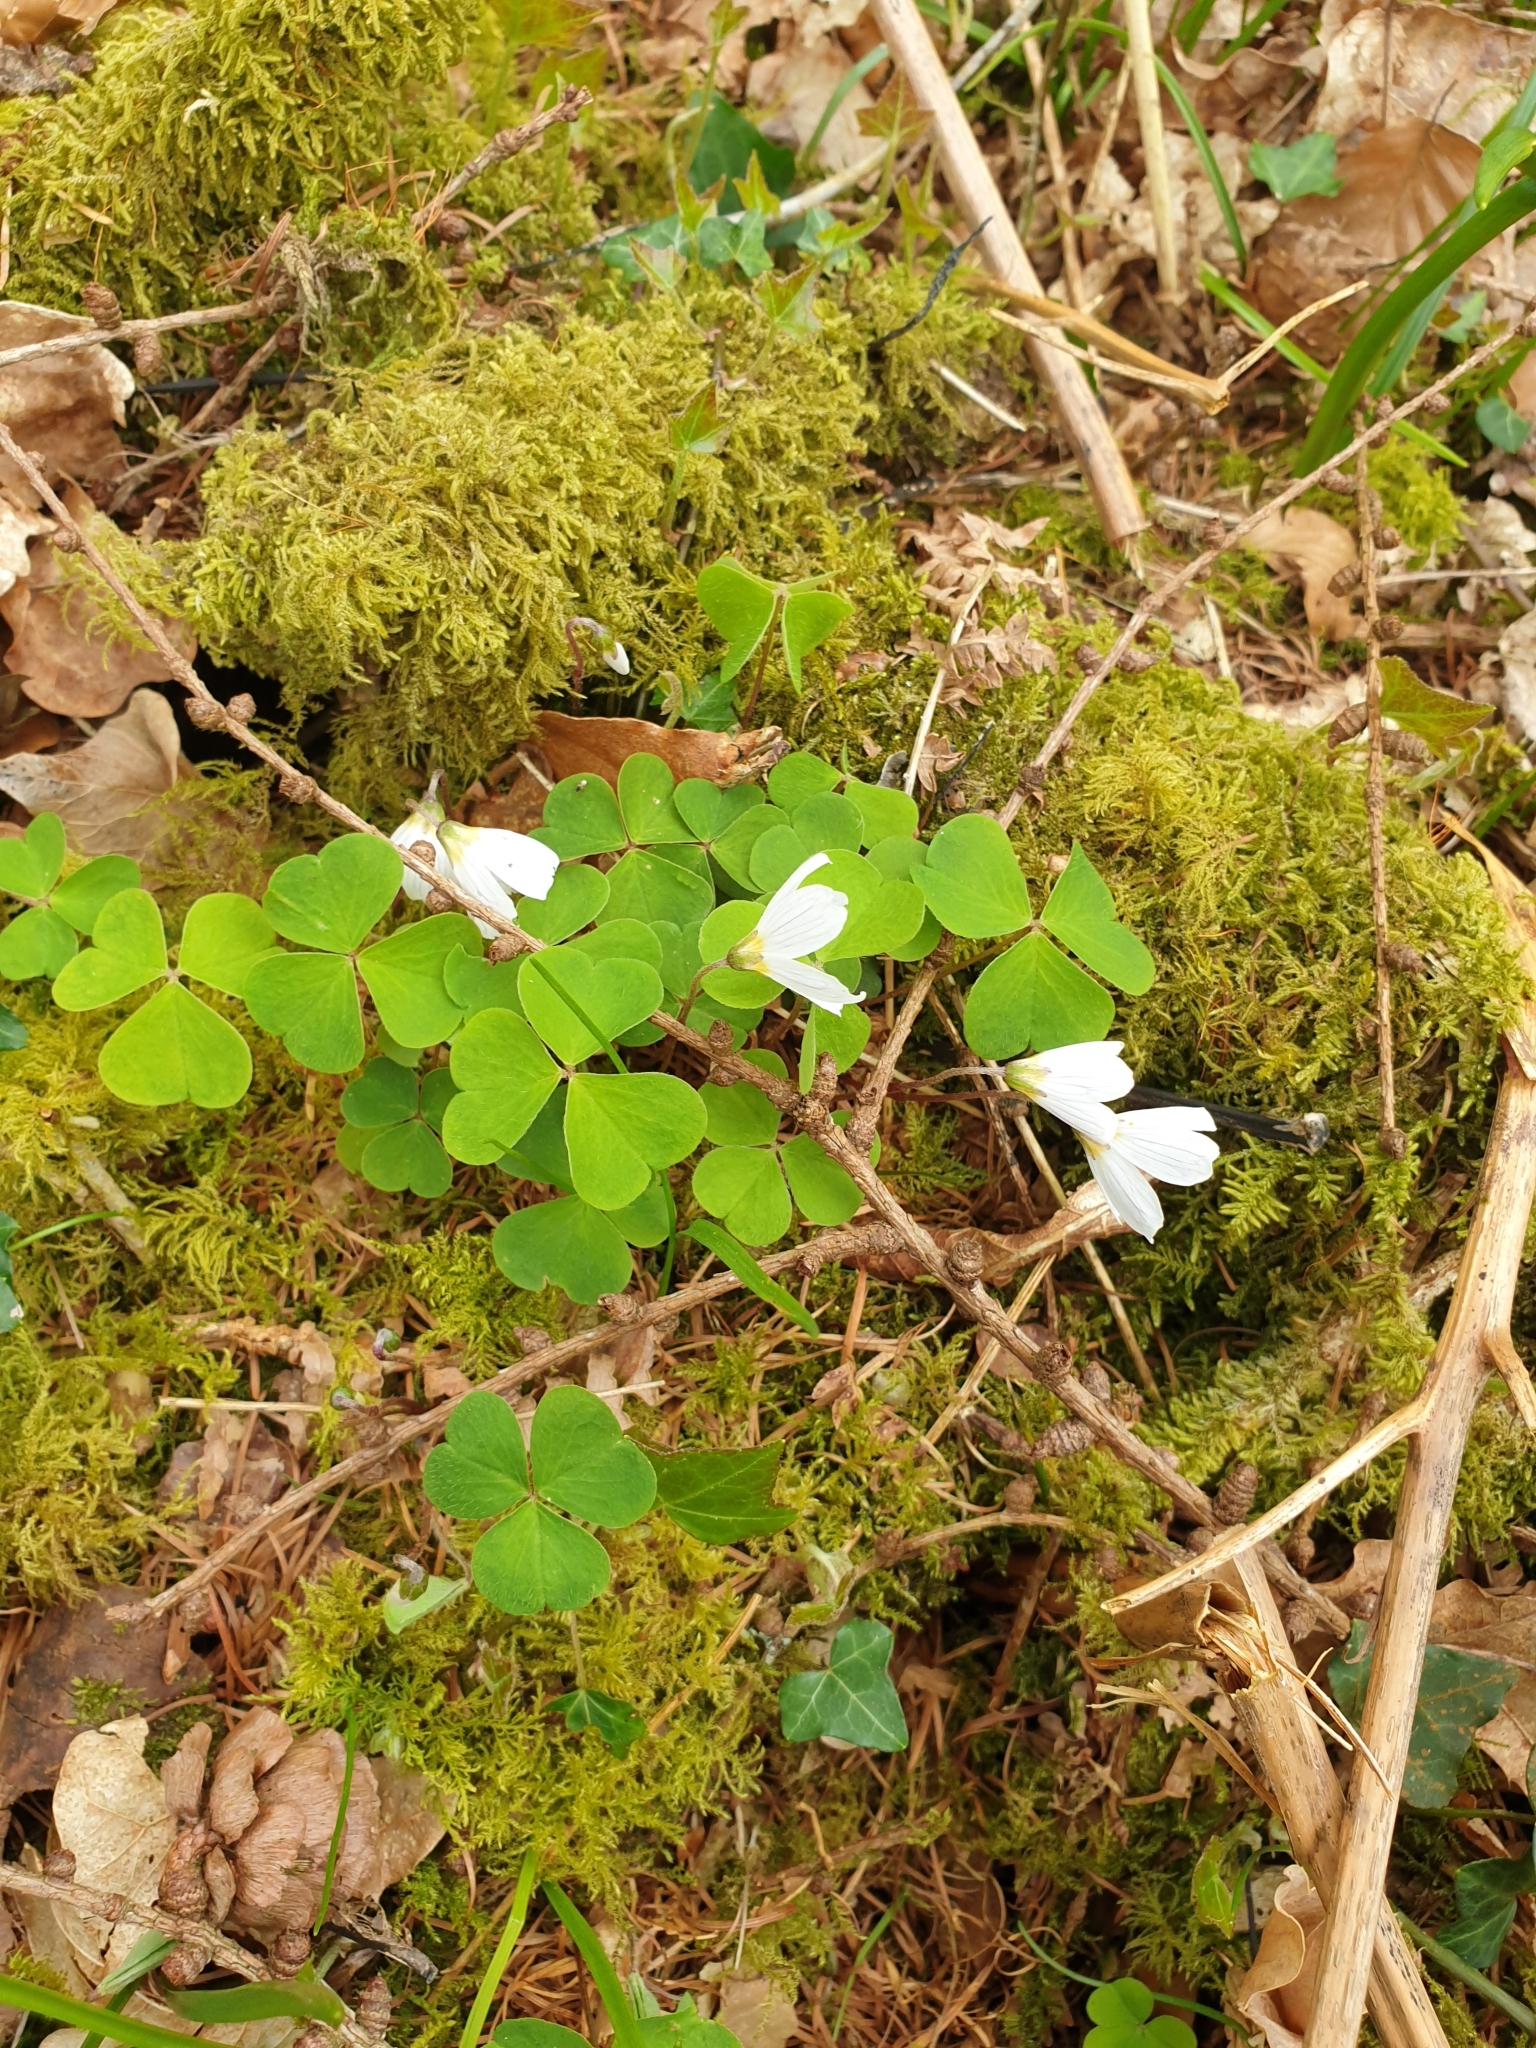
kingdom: Plantae
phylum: Tracheophyta
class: Magnoliopsida
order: Oxalidales
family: Oxalidaceae
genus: Oxalis
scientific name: Oxalis acetosella
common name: Wood-sorrel
